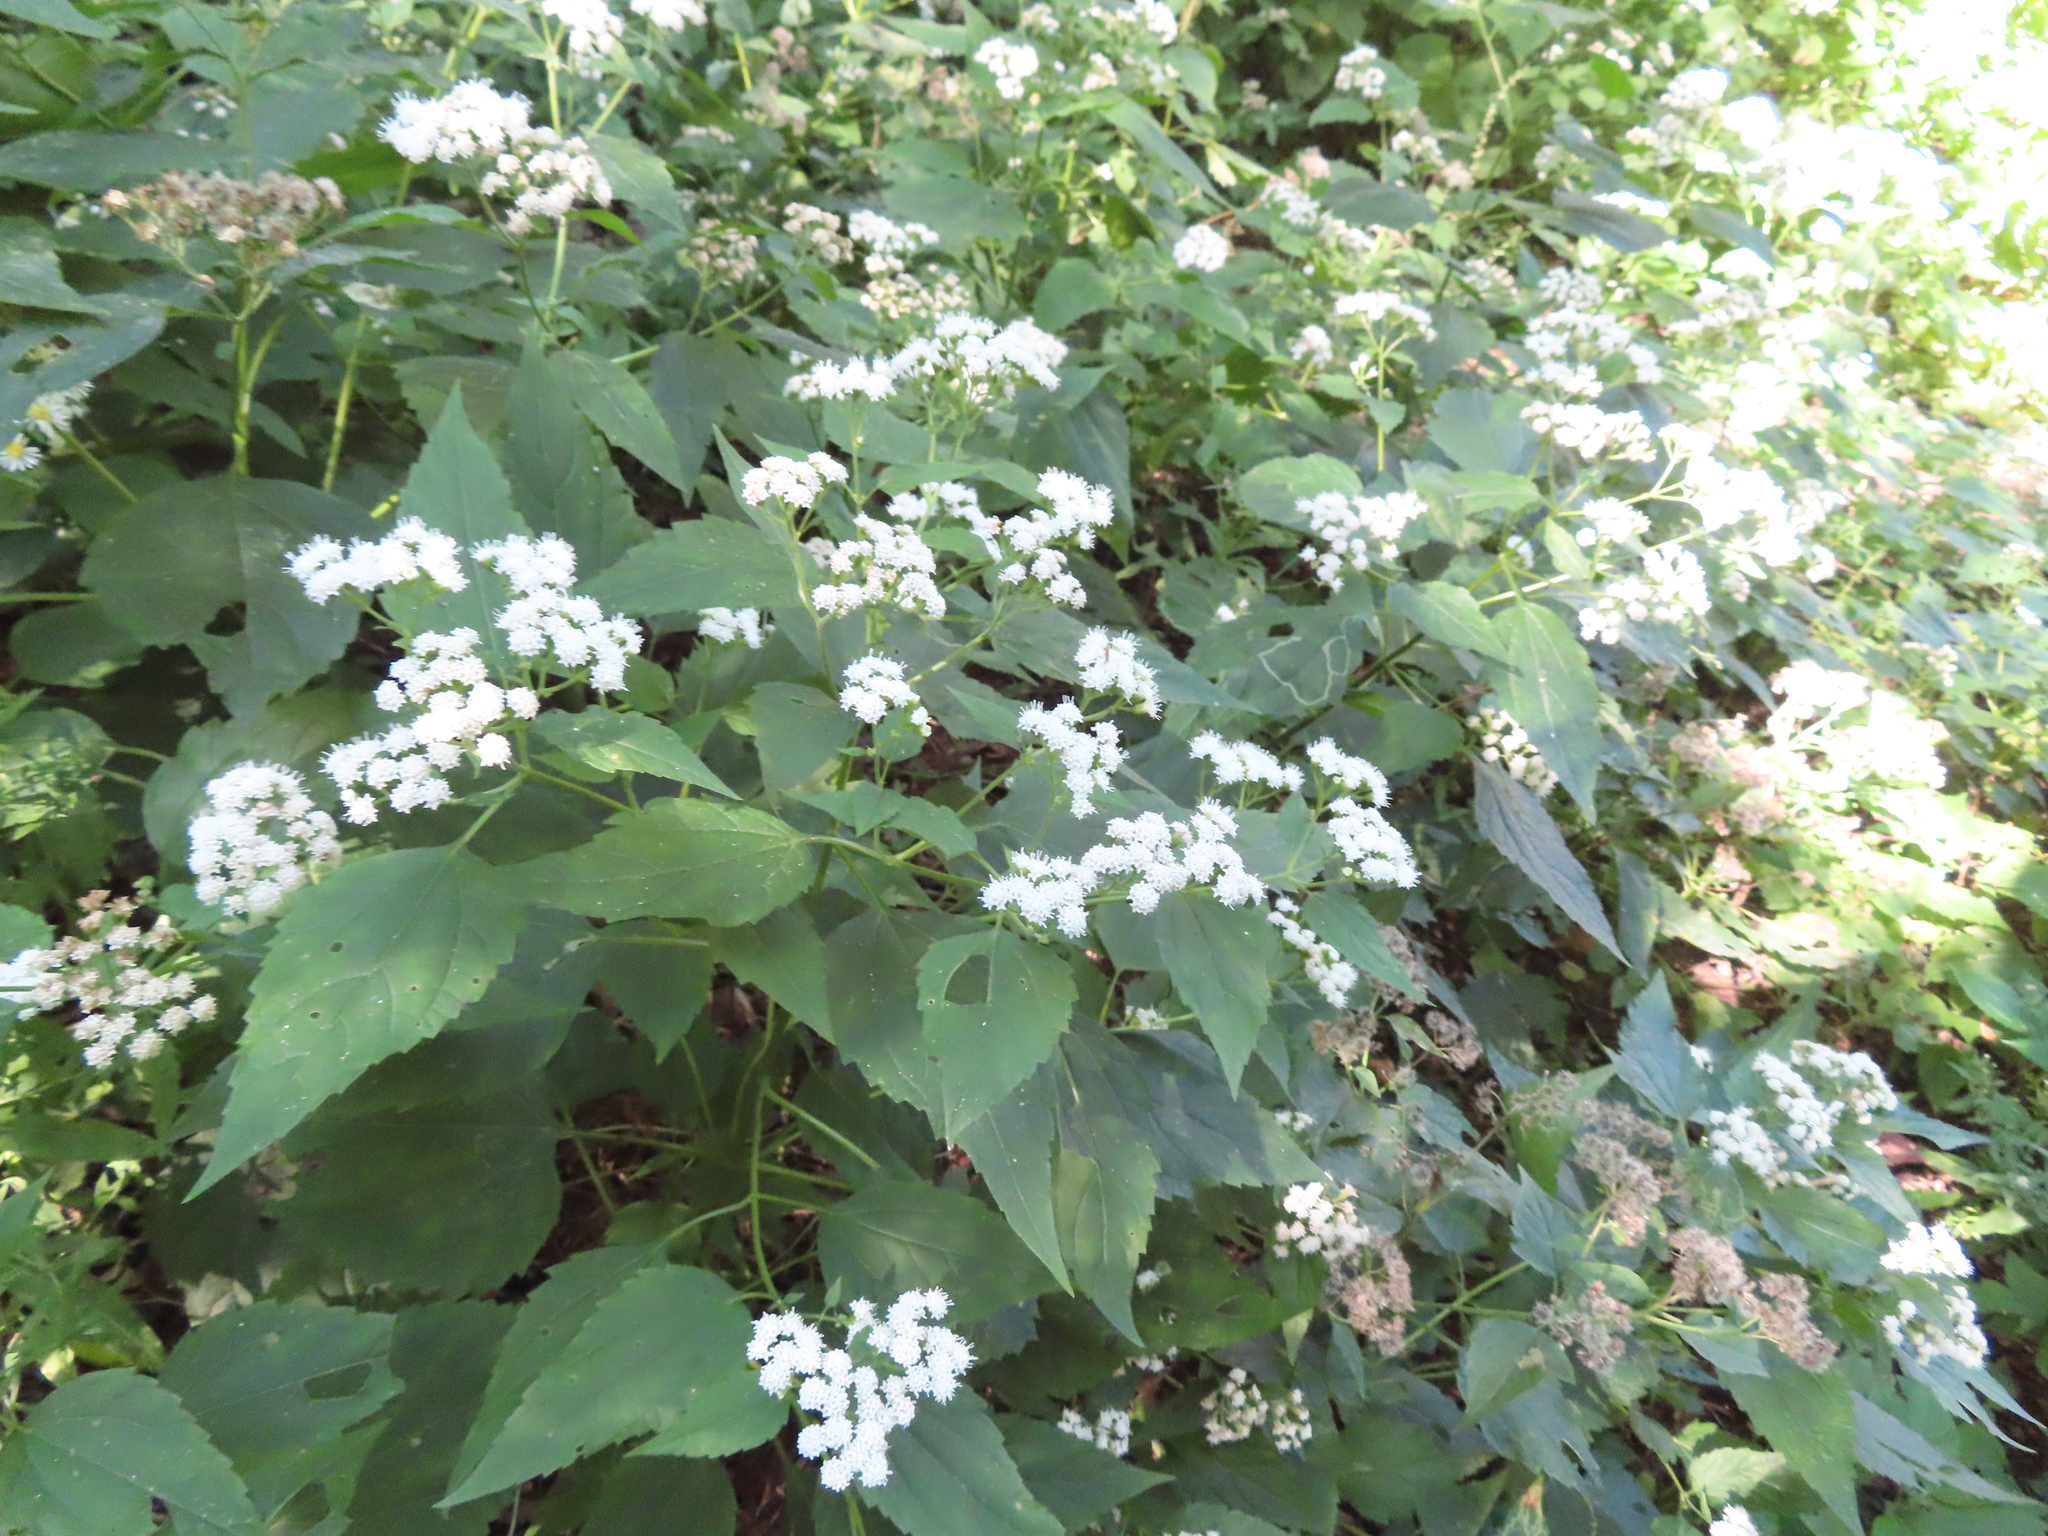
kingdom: Plantae
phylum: Tracheophyta
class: Magnoliopsida
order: Asterales
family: Asteraceae
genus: Ageratina
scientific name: Ageratina altissima
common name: White snakeroot
